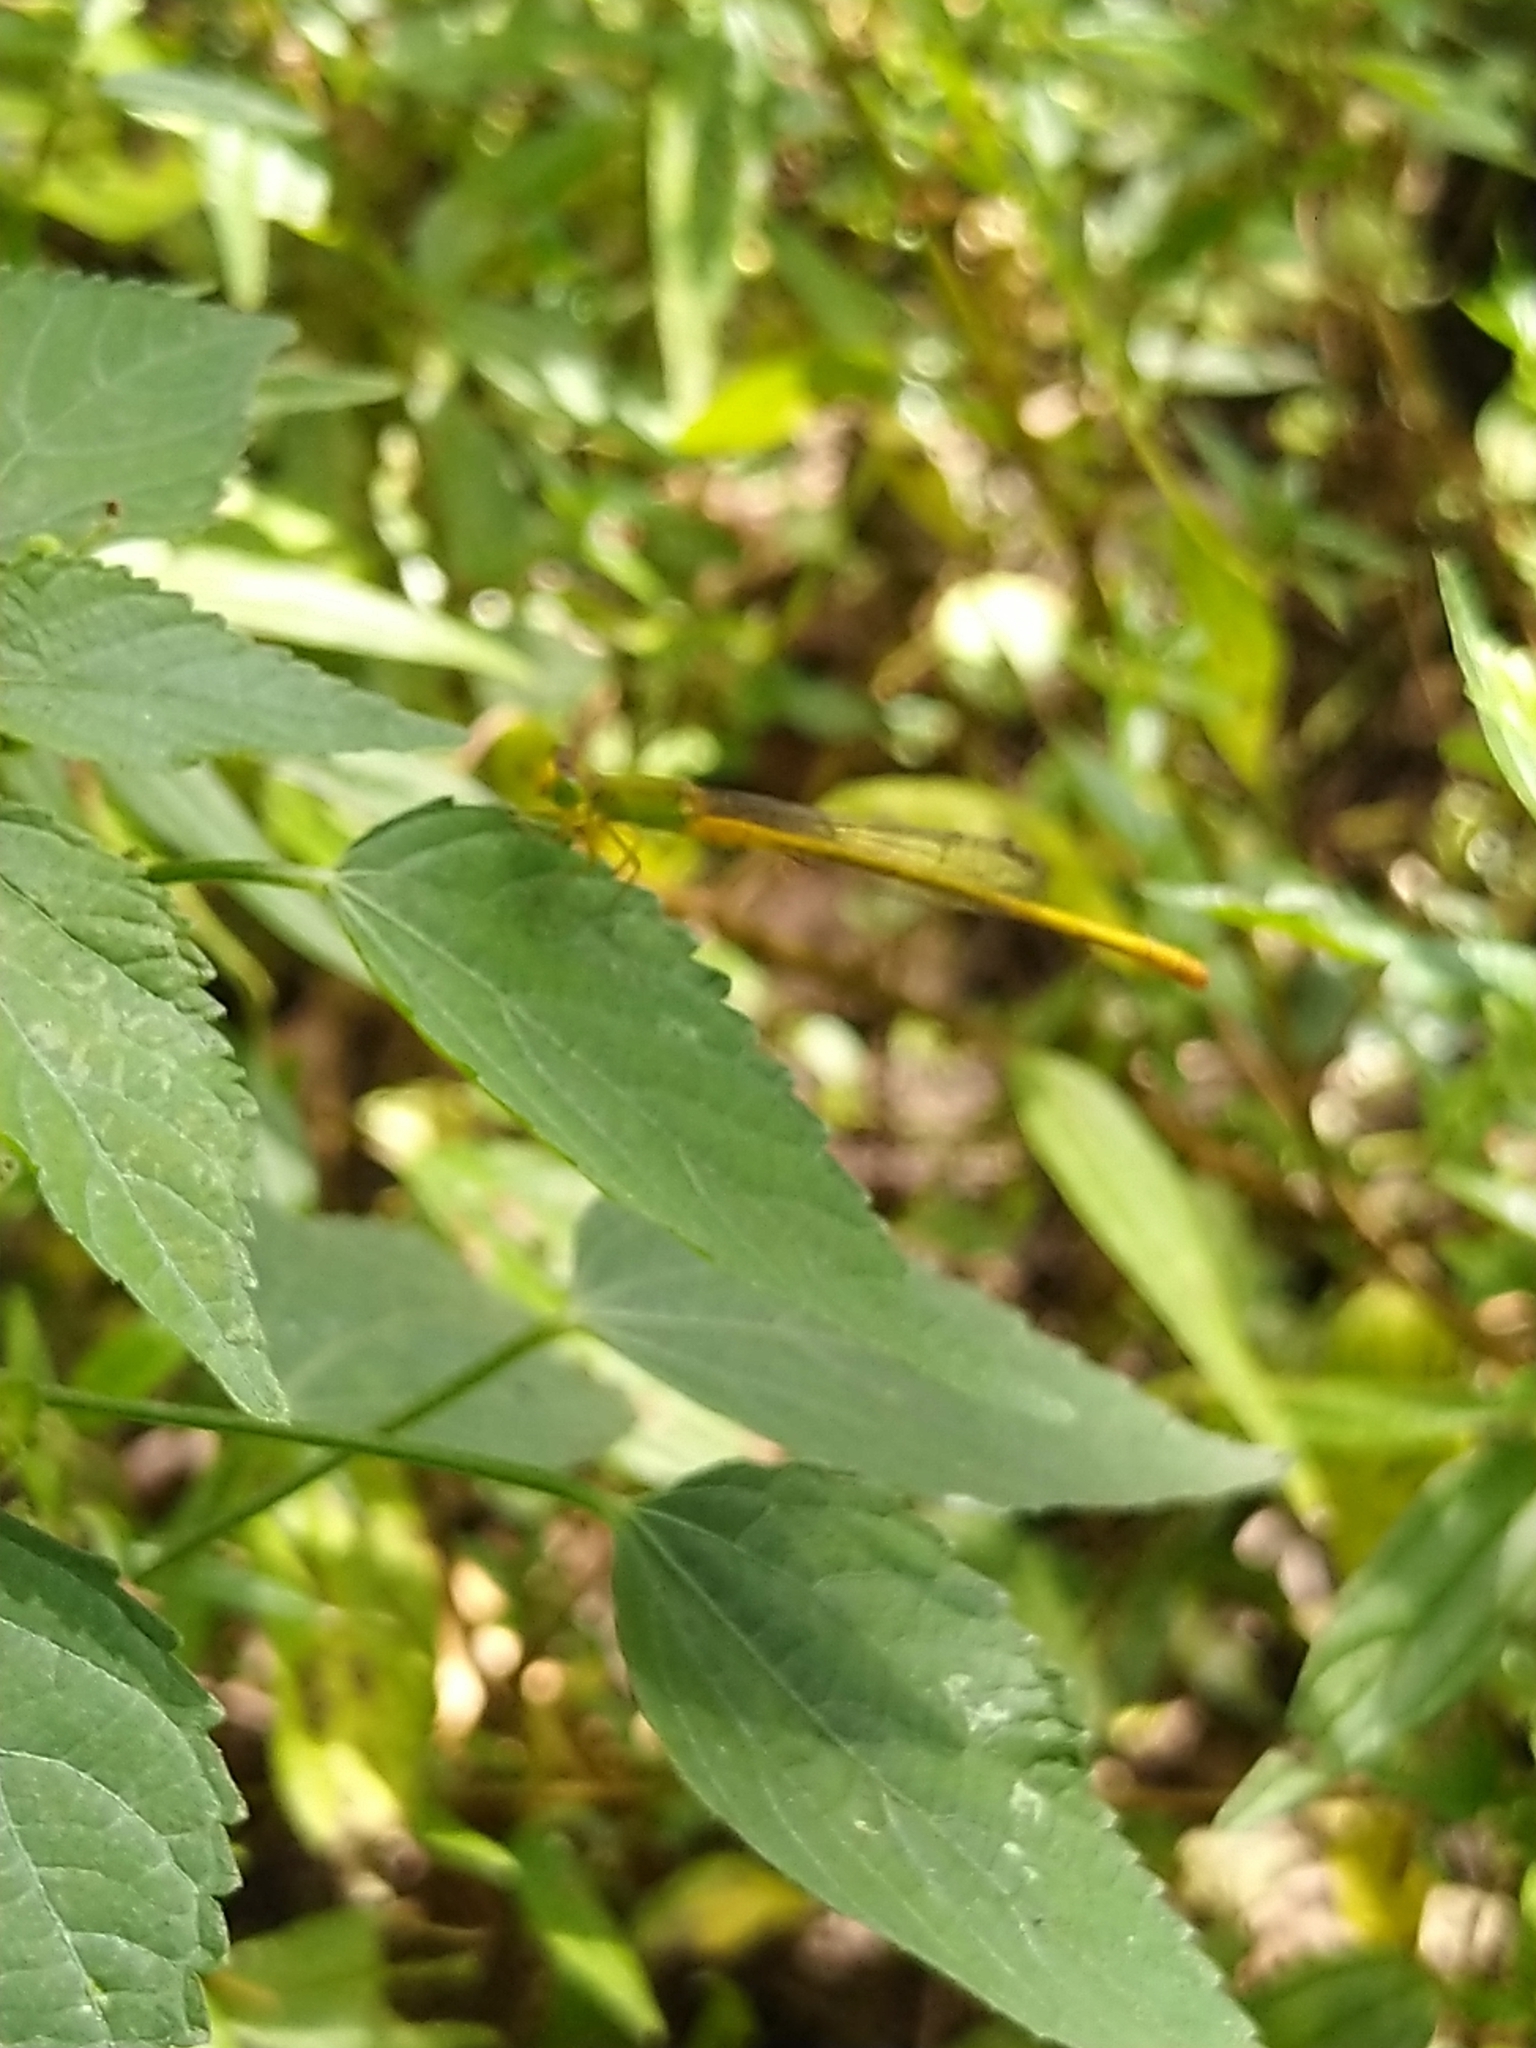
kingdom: Animalia
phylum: Arthropoda
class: Insecta
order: Odonata
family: Coenagrionidae
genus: Ceriagrion
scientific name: Ceriagrion coromandelianum
